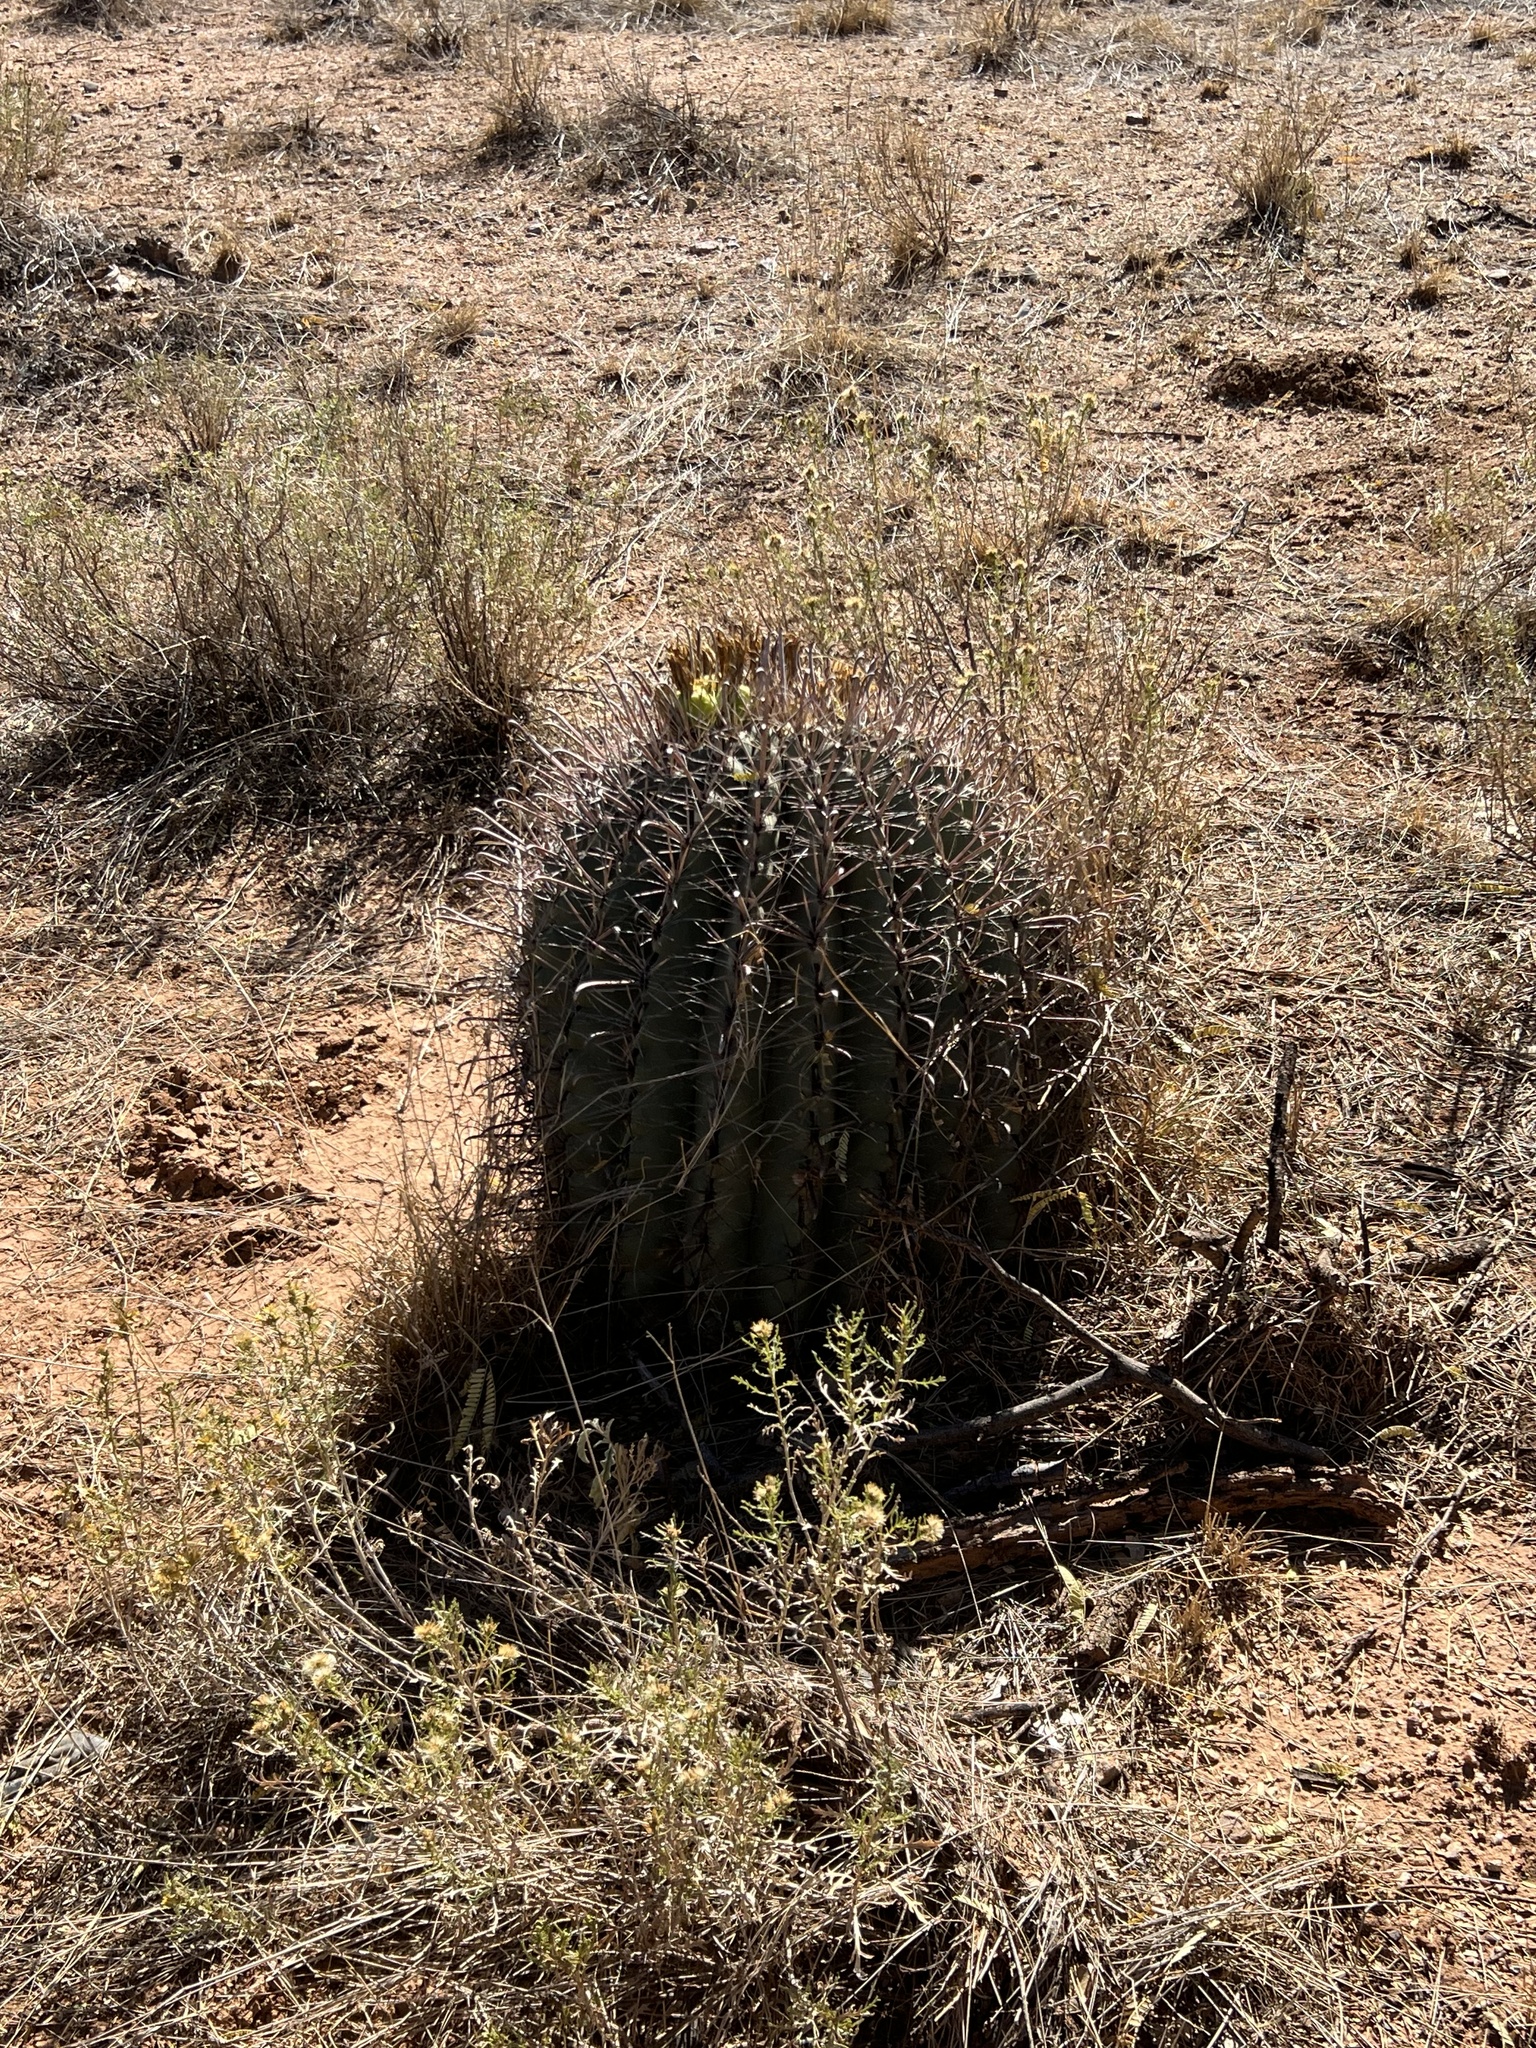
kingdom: Plantae
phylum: Tracheophyta
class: Magnoliopsida
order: Caryophyllales
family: Cactaceae
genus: Ferocactus
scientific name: Ferocactus wislizeni
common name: Candy barrel cactus
